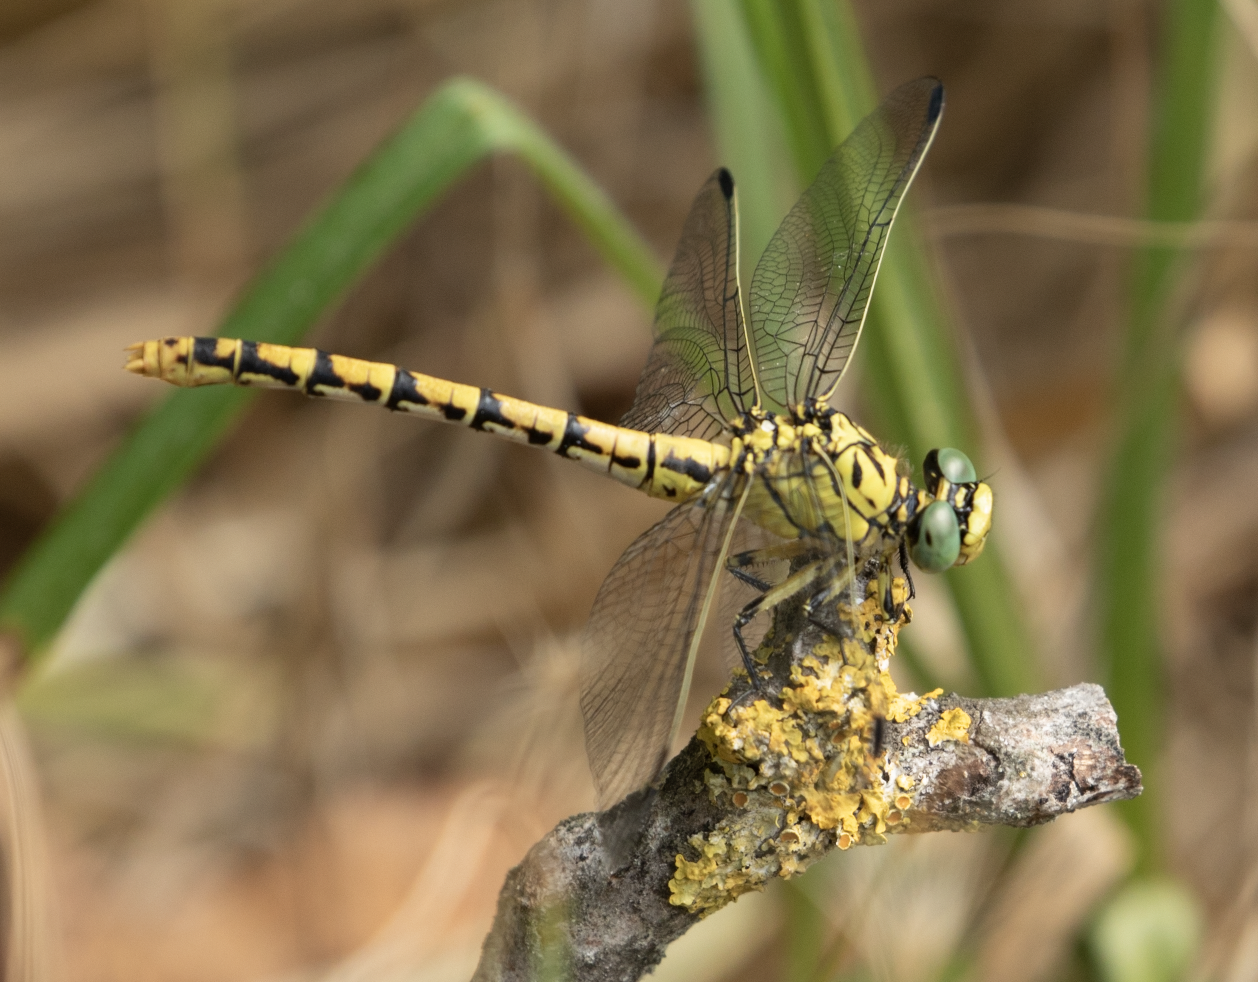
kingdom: Animalia
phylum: Arthropoda
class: Insecta
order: Odonata
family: Gomphidae
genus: Onychogomphus
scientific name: Onychogomphus forcipatus
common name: Small pincertail
